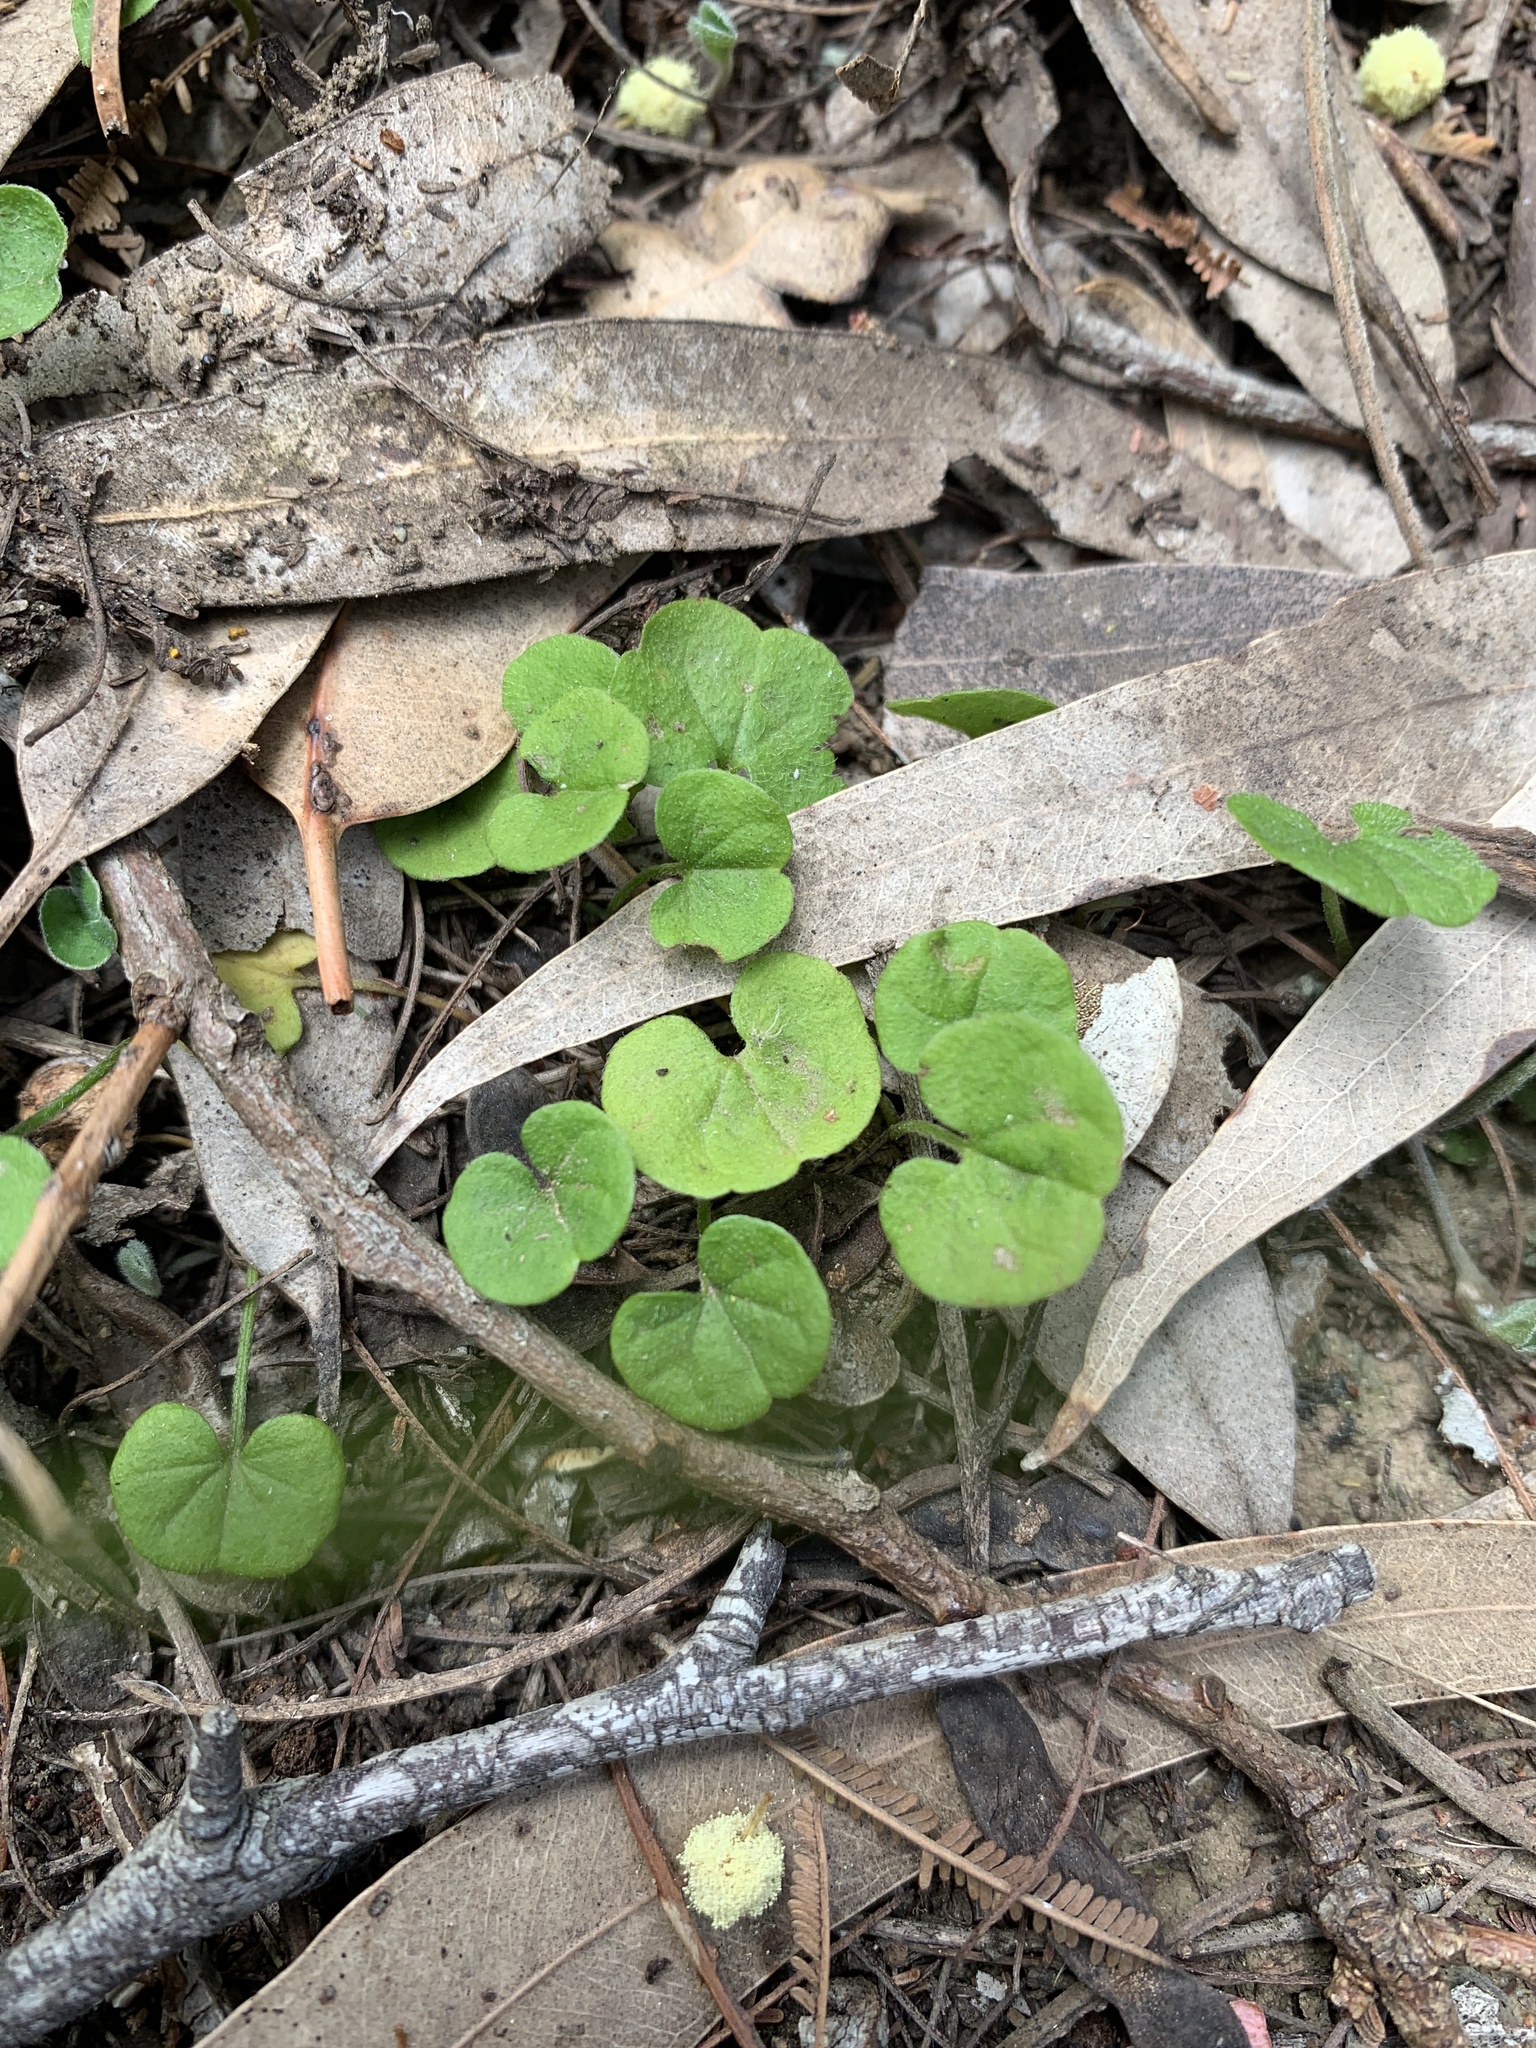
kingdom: Plantae
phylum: Tracheophyta
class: Magnoliopsida
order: Solanales
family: Convolvulaceae
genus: Dichondra
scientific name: Dichondra repens
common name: Kidneyweed
